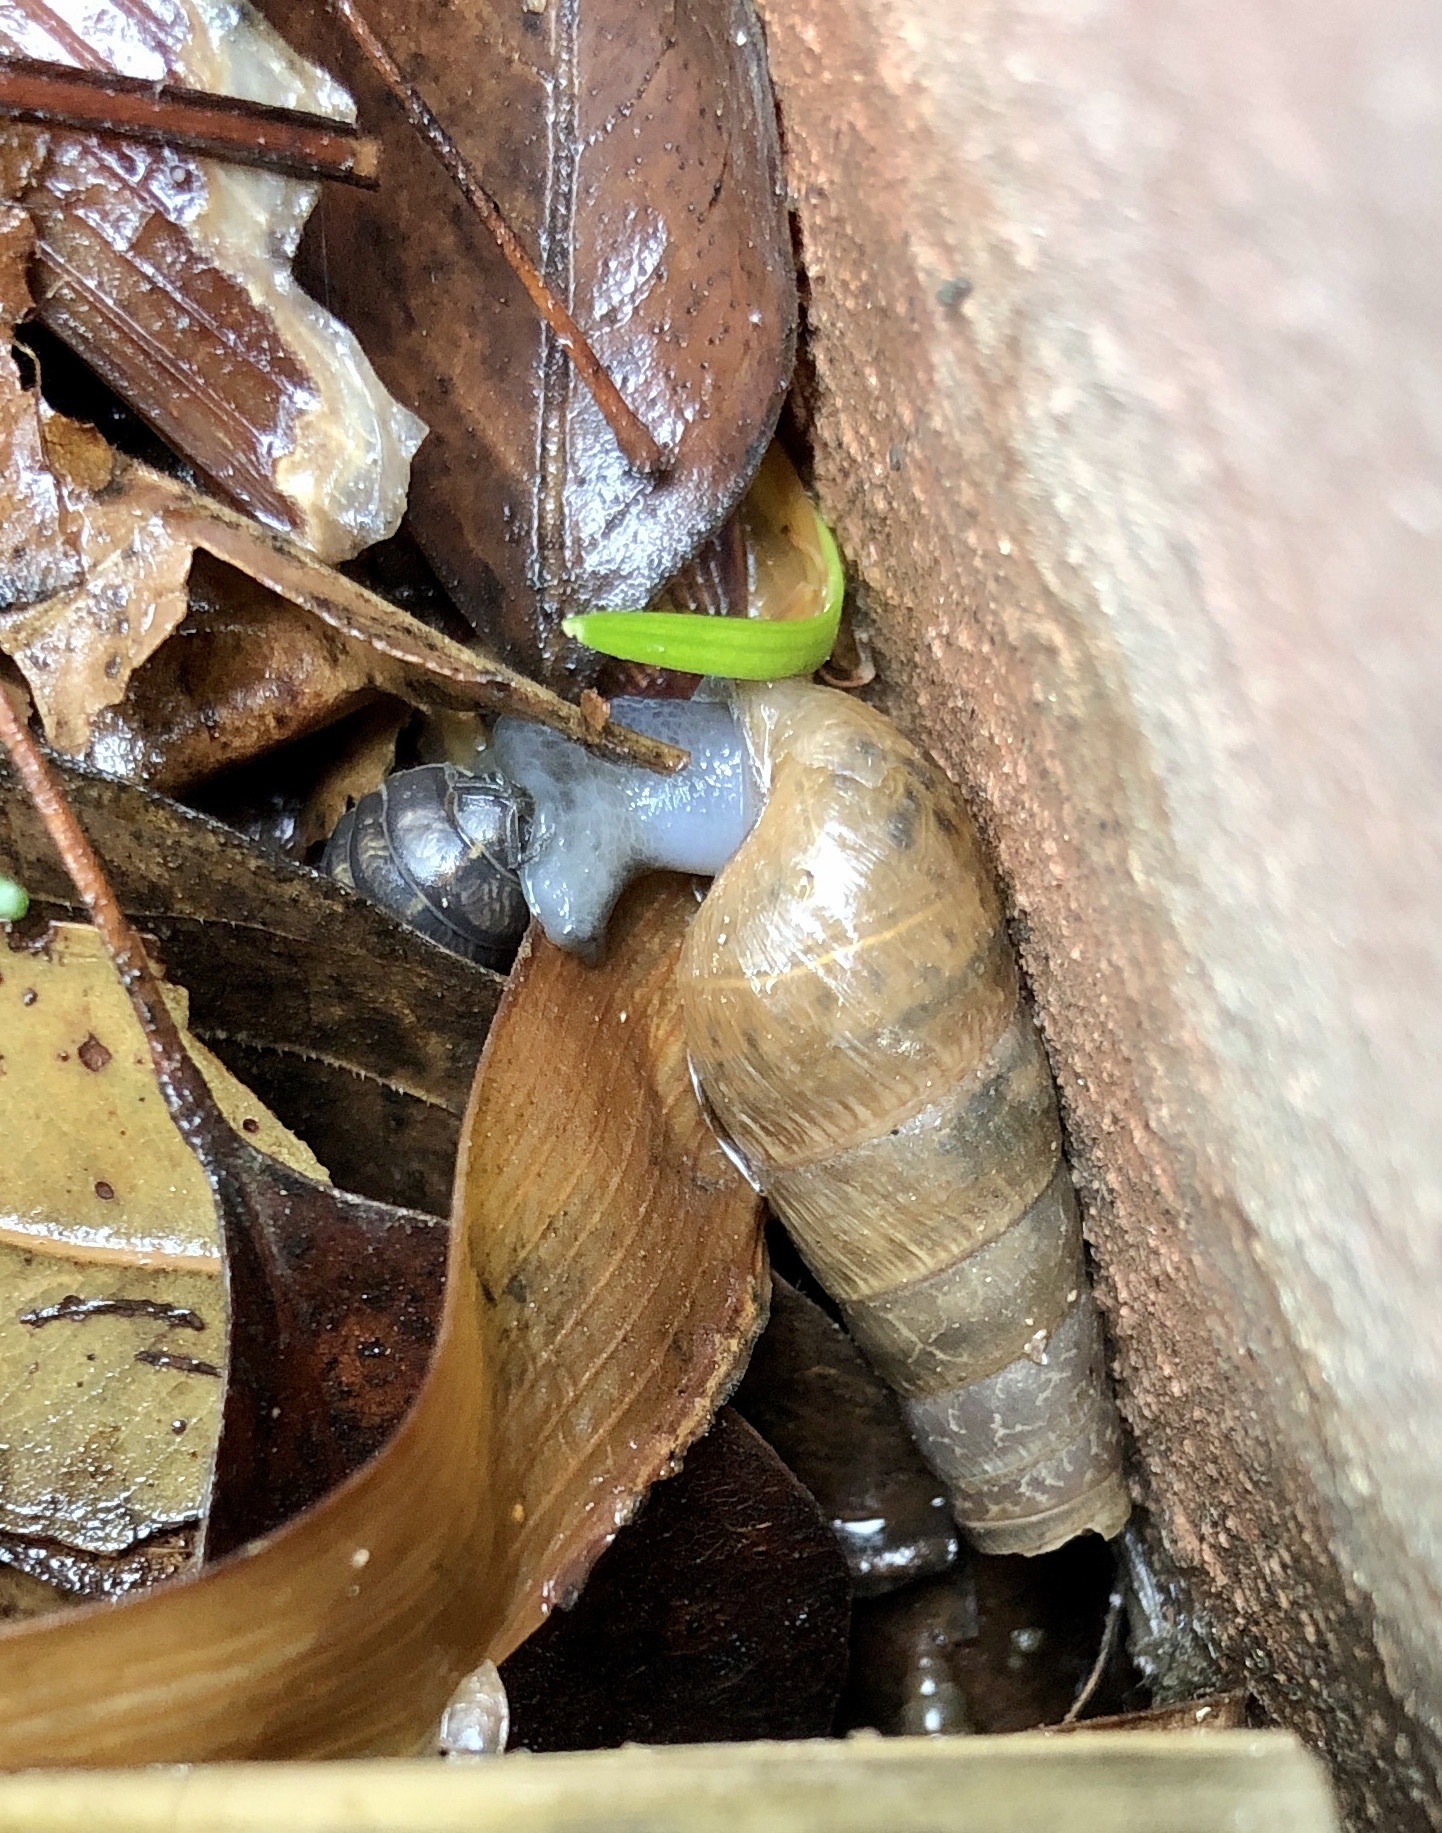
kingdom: Animalia
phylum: Mollusca
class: Gastropoda
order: Stylommatophora
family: Achatinidae
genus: Rumina
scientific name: Rumina decollata
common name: Decollate snail
